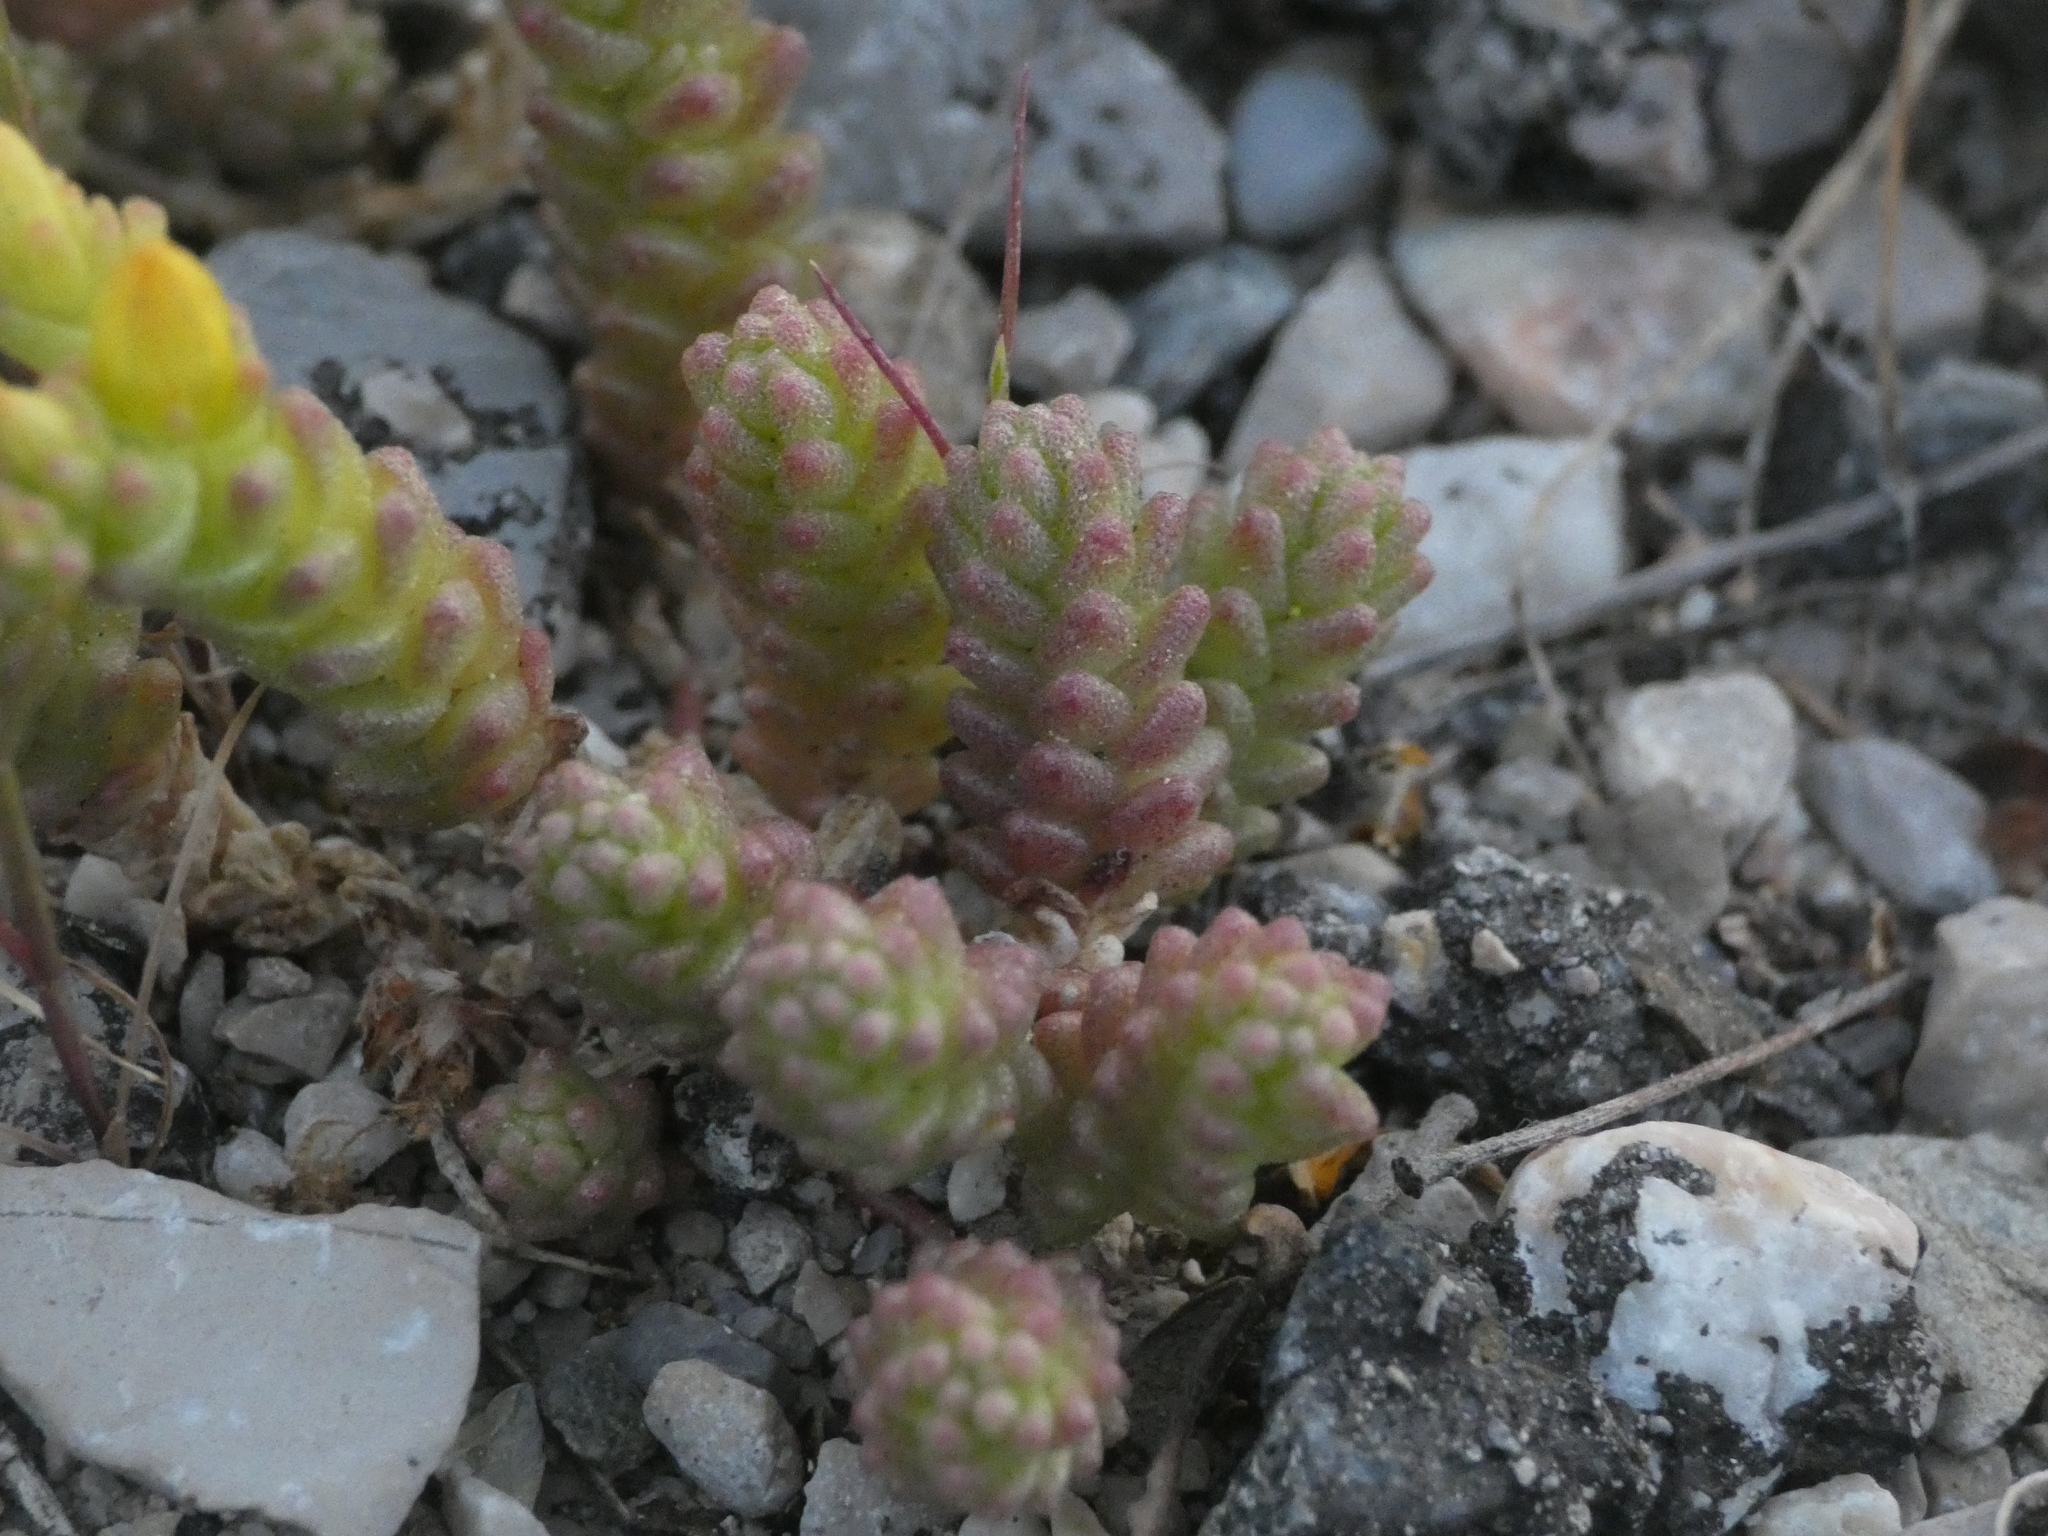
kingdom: Plantae
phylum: Tracheophyta
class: Magnoliopsida
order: Saxifragales
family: Crassulaceae
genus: Sedum
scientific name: Sedum acre
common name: Biting stonecrop
